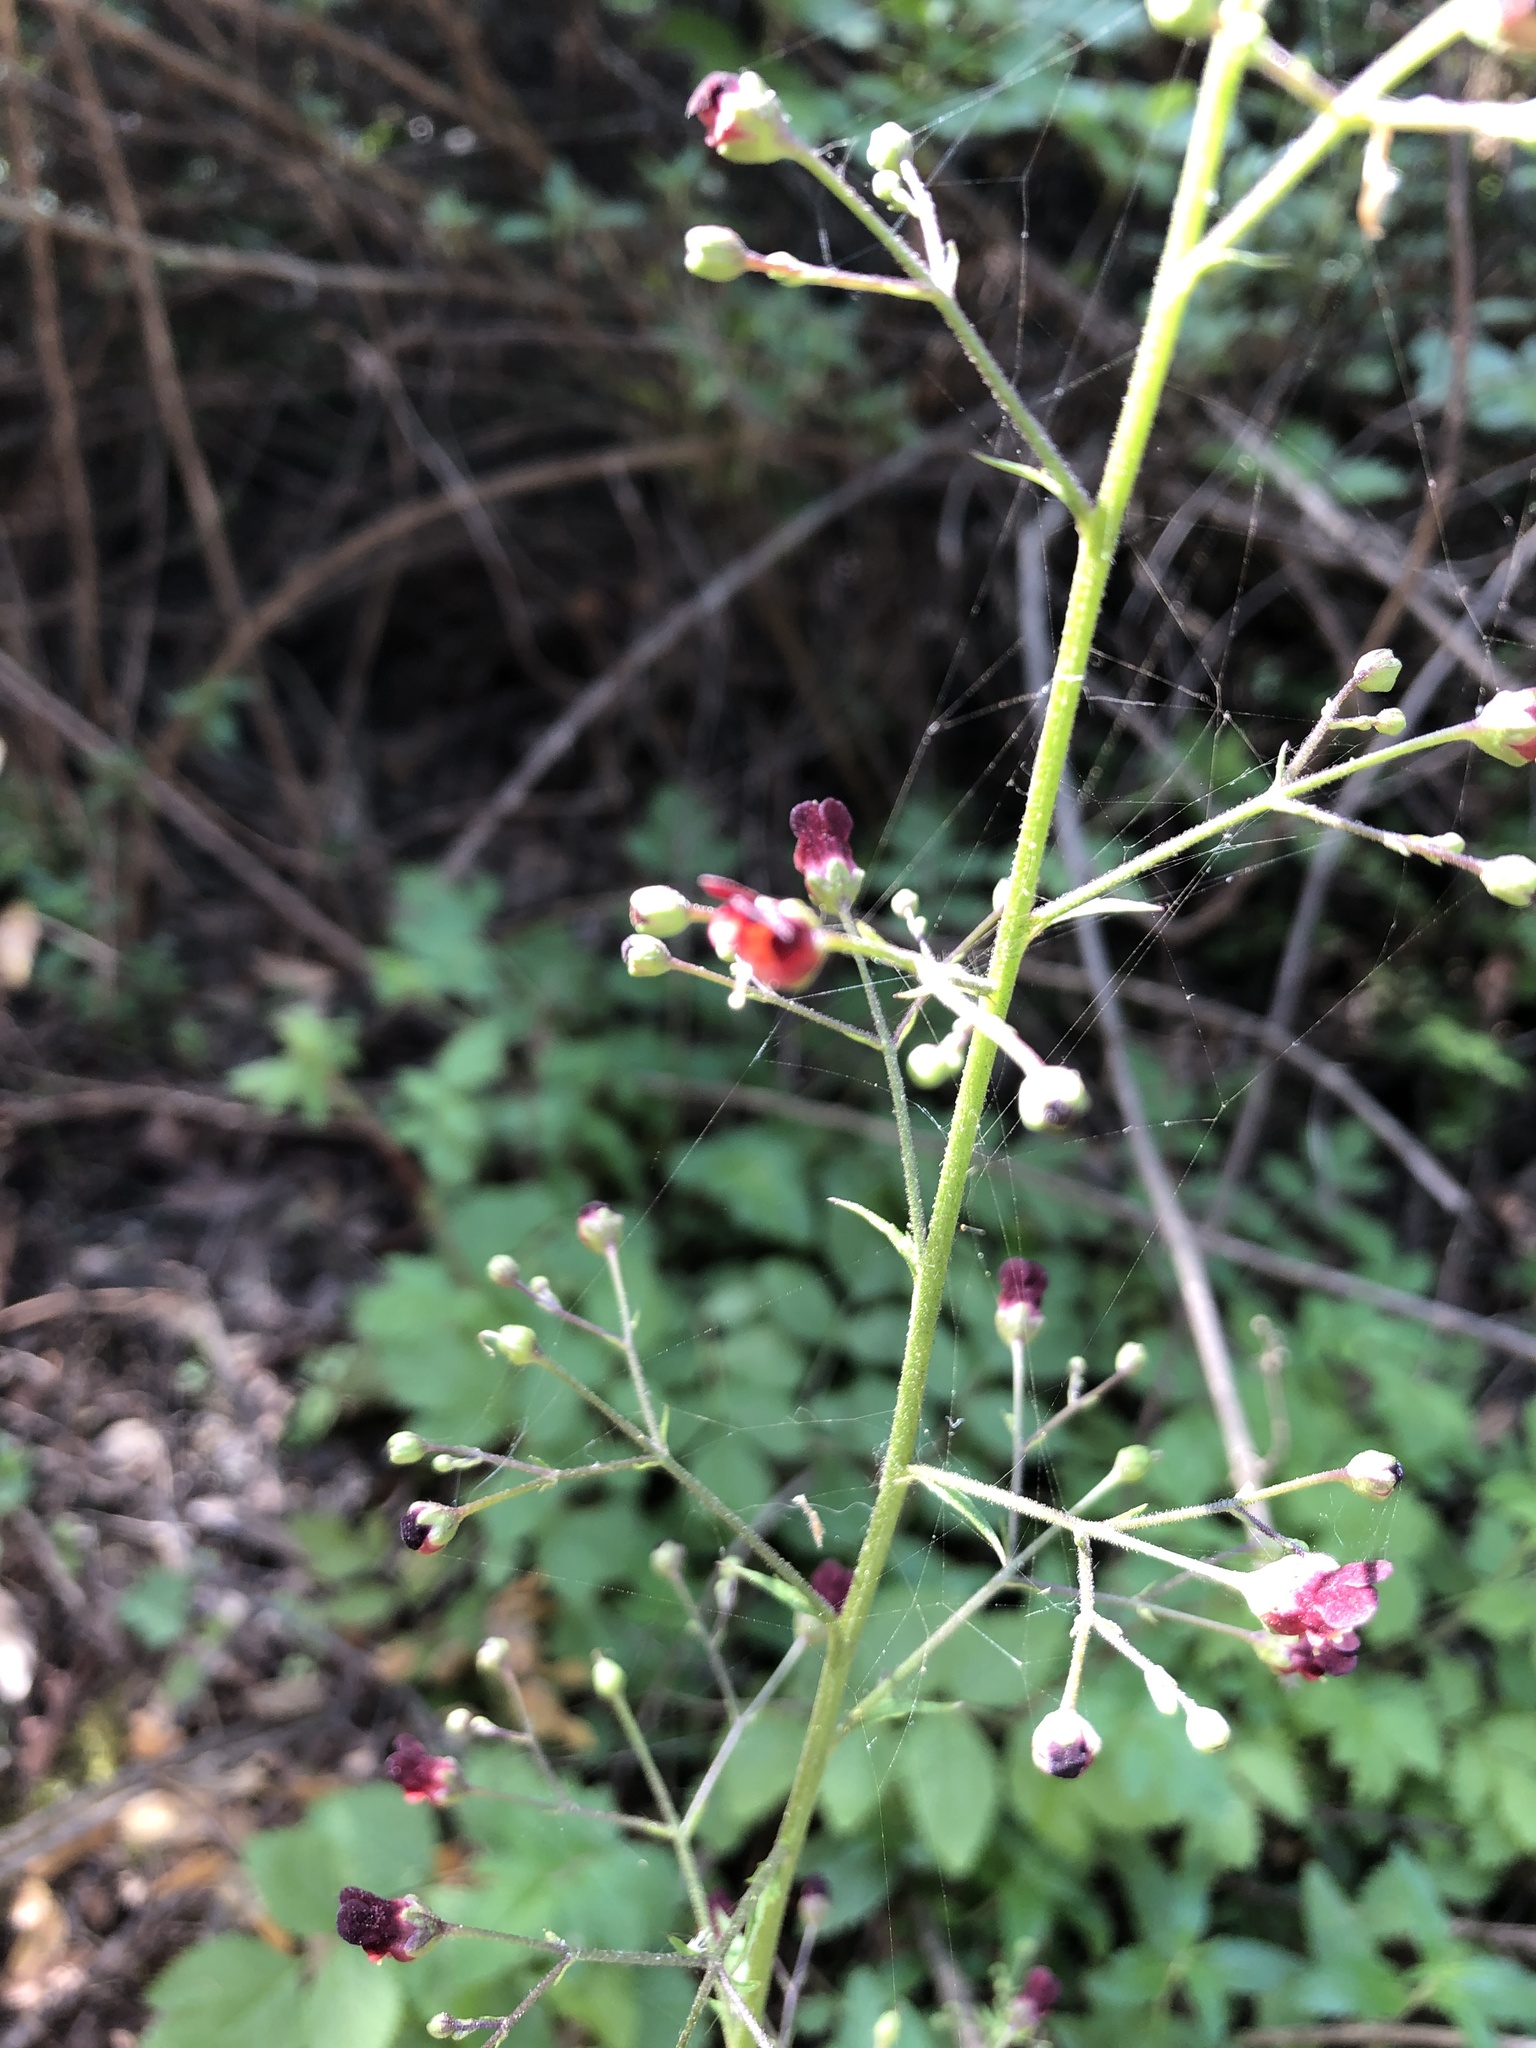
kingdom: Plantae
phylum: Tracheophyta
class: Magnoliopsida
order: Lamiales
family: Scrophulariaceae
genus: Scrophularia
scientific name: Scrophularia californica
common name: California figwort
